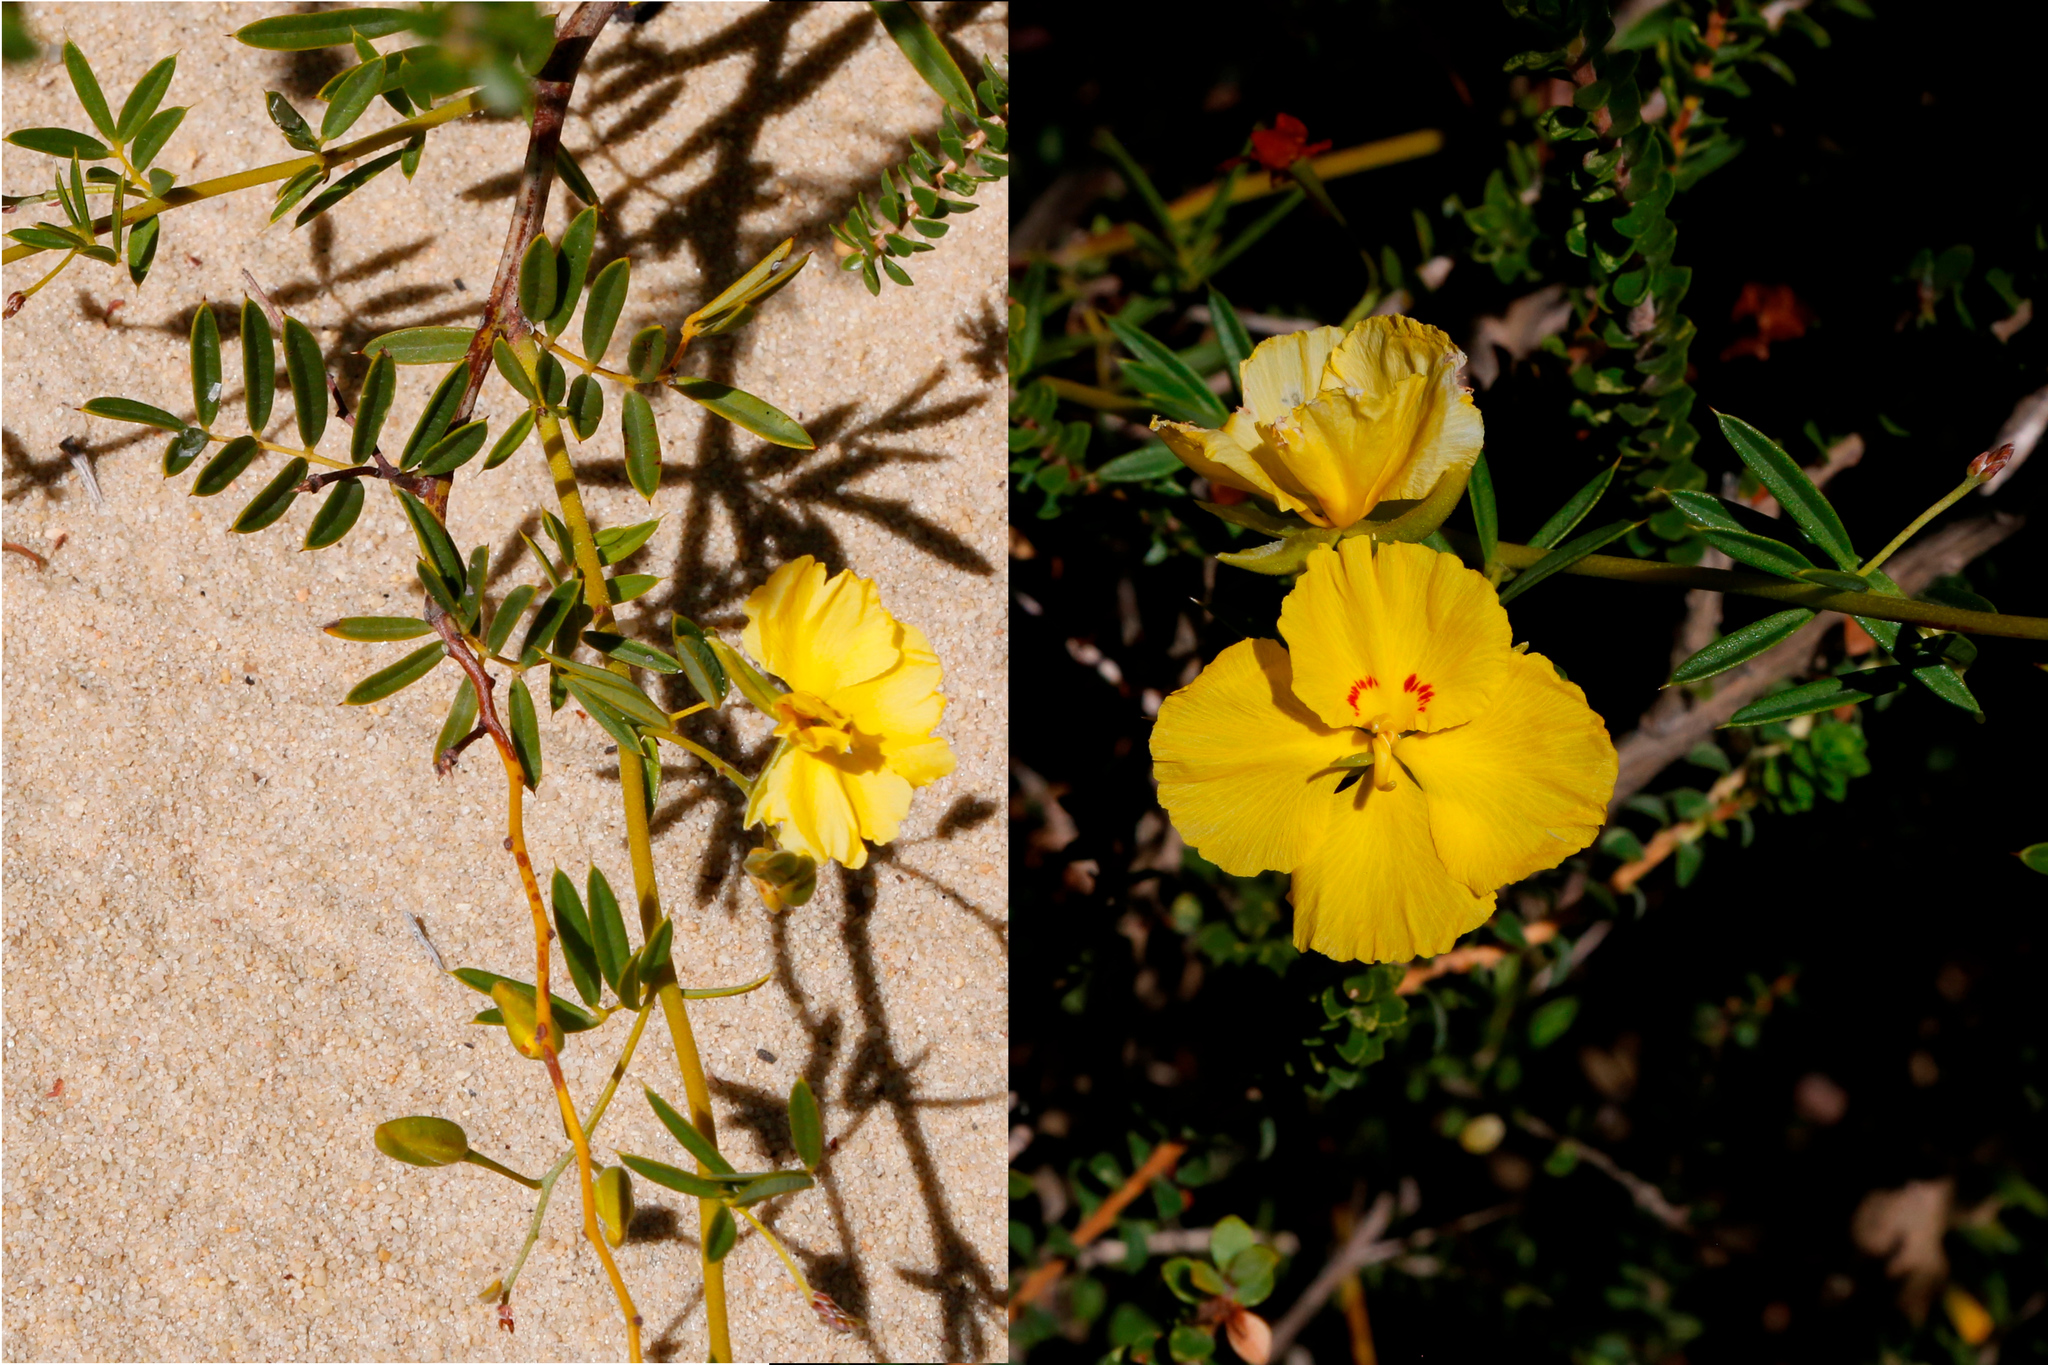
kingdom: Plantae
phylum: Tracheophyta
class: Magnoliopsida
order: Fabales
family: Fabaceae
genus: Labichea
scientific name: Labichea cassioides
